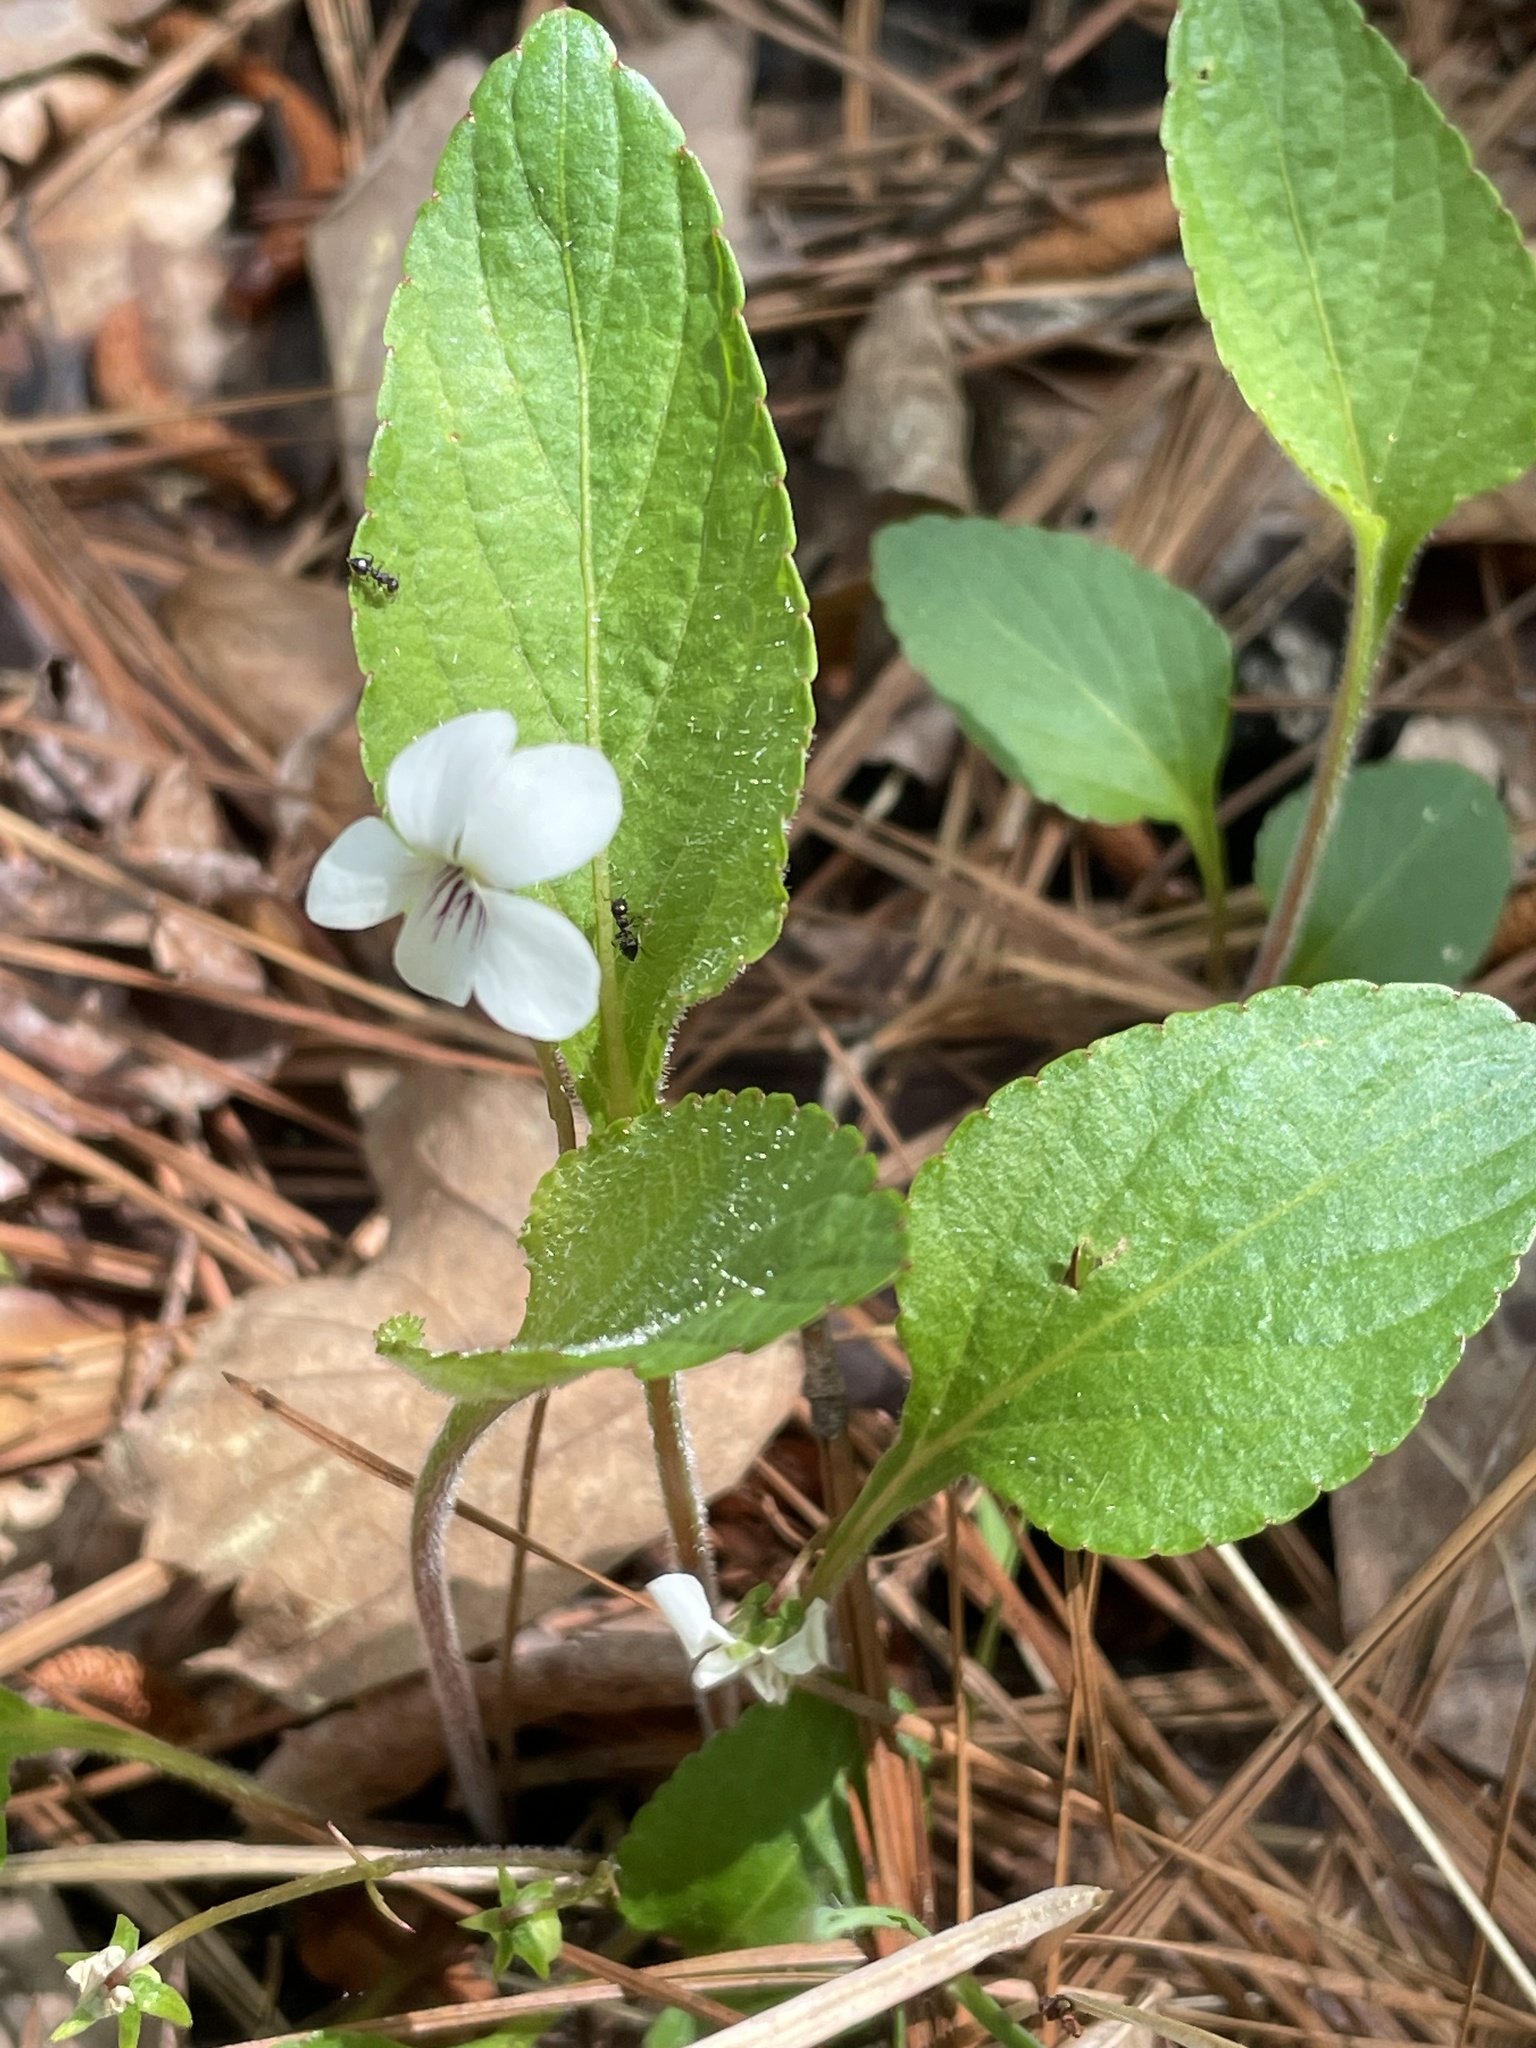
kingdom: Plantae
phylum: Tracheophyta
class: Magnoliopsida
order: Malpighiales
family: Violaceae
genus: Viola
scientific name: Viola primulifolia
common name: Primrose-leaf violet
